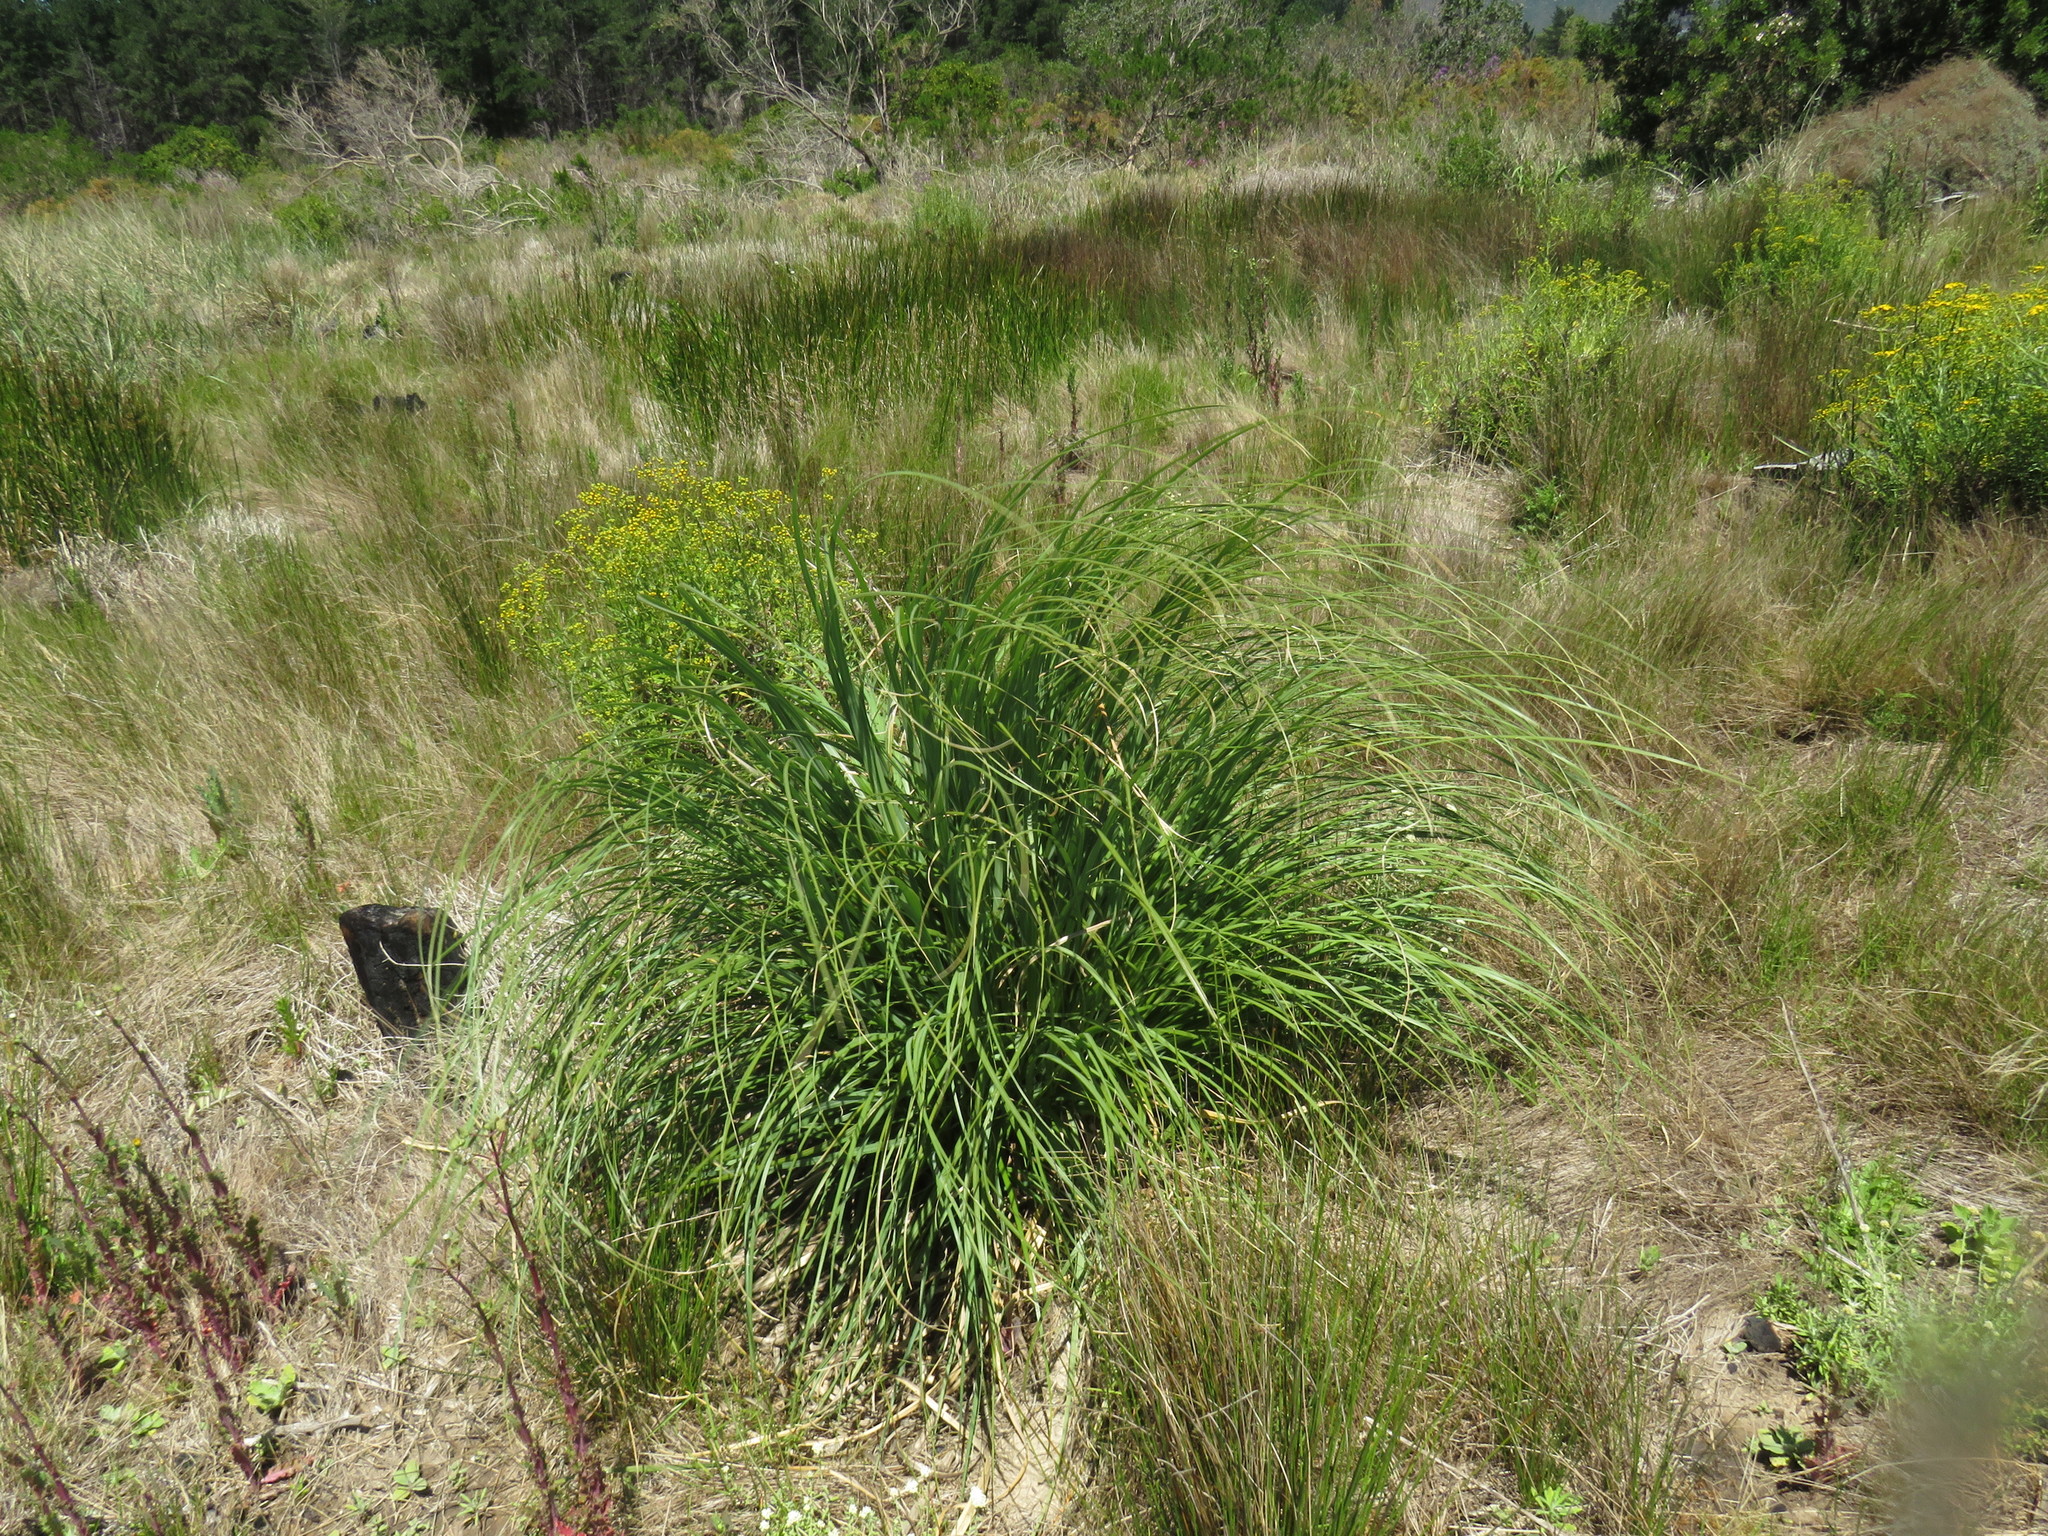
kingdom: Plantae
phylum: Tracheophyta
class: Liliopsida
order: Poales
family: Poaceae
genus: Cortaderia
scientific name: Cortaderia selloana
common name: Uruguayan pampas grass
